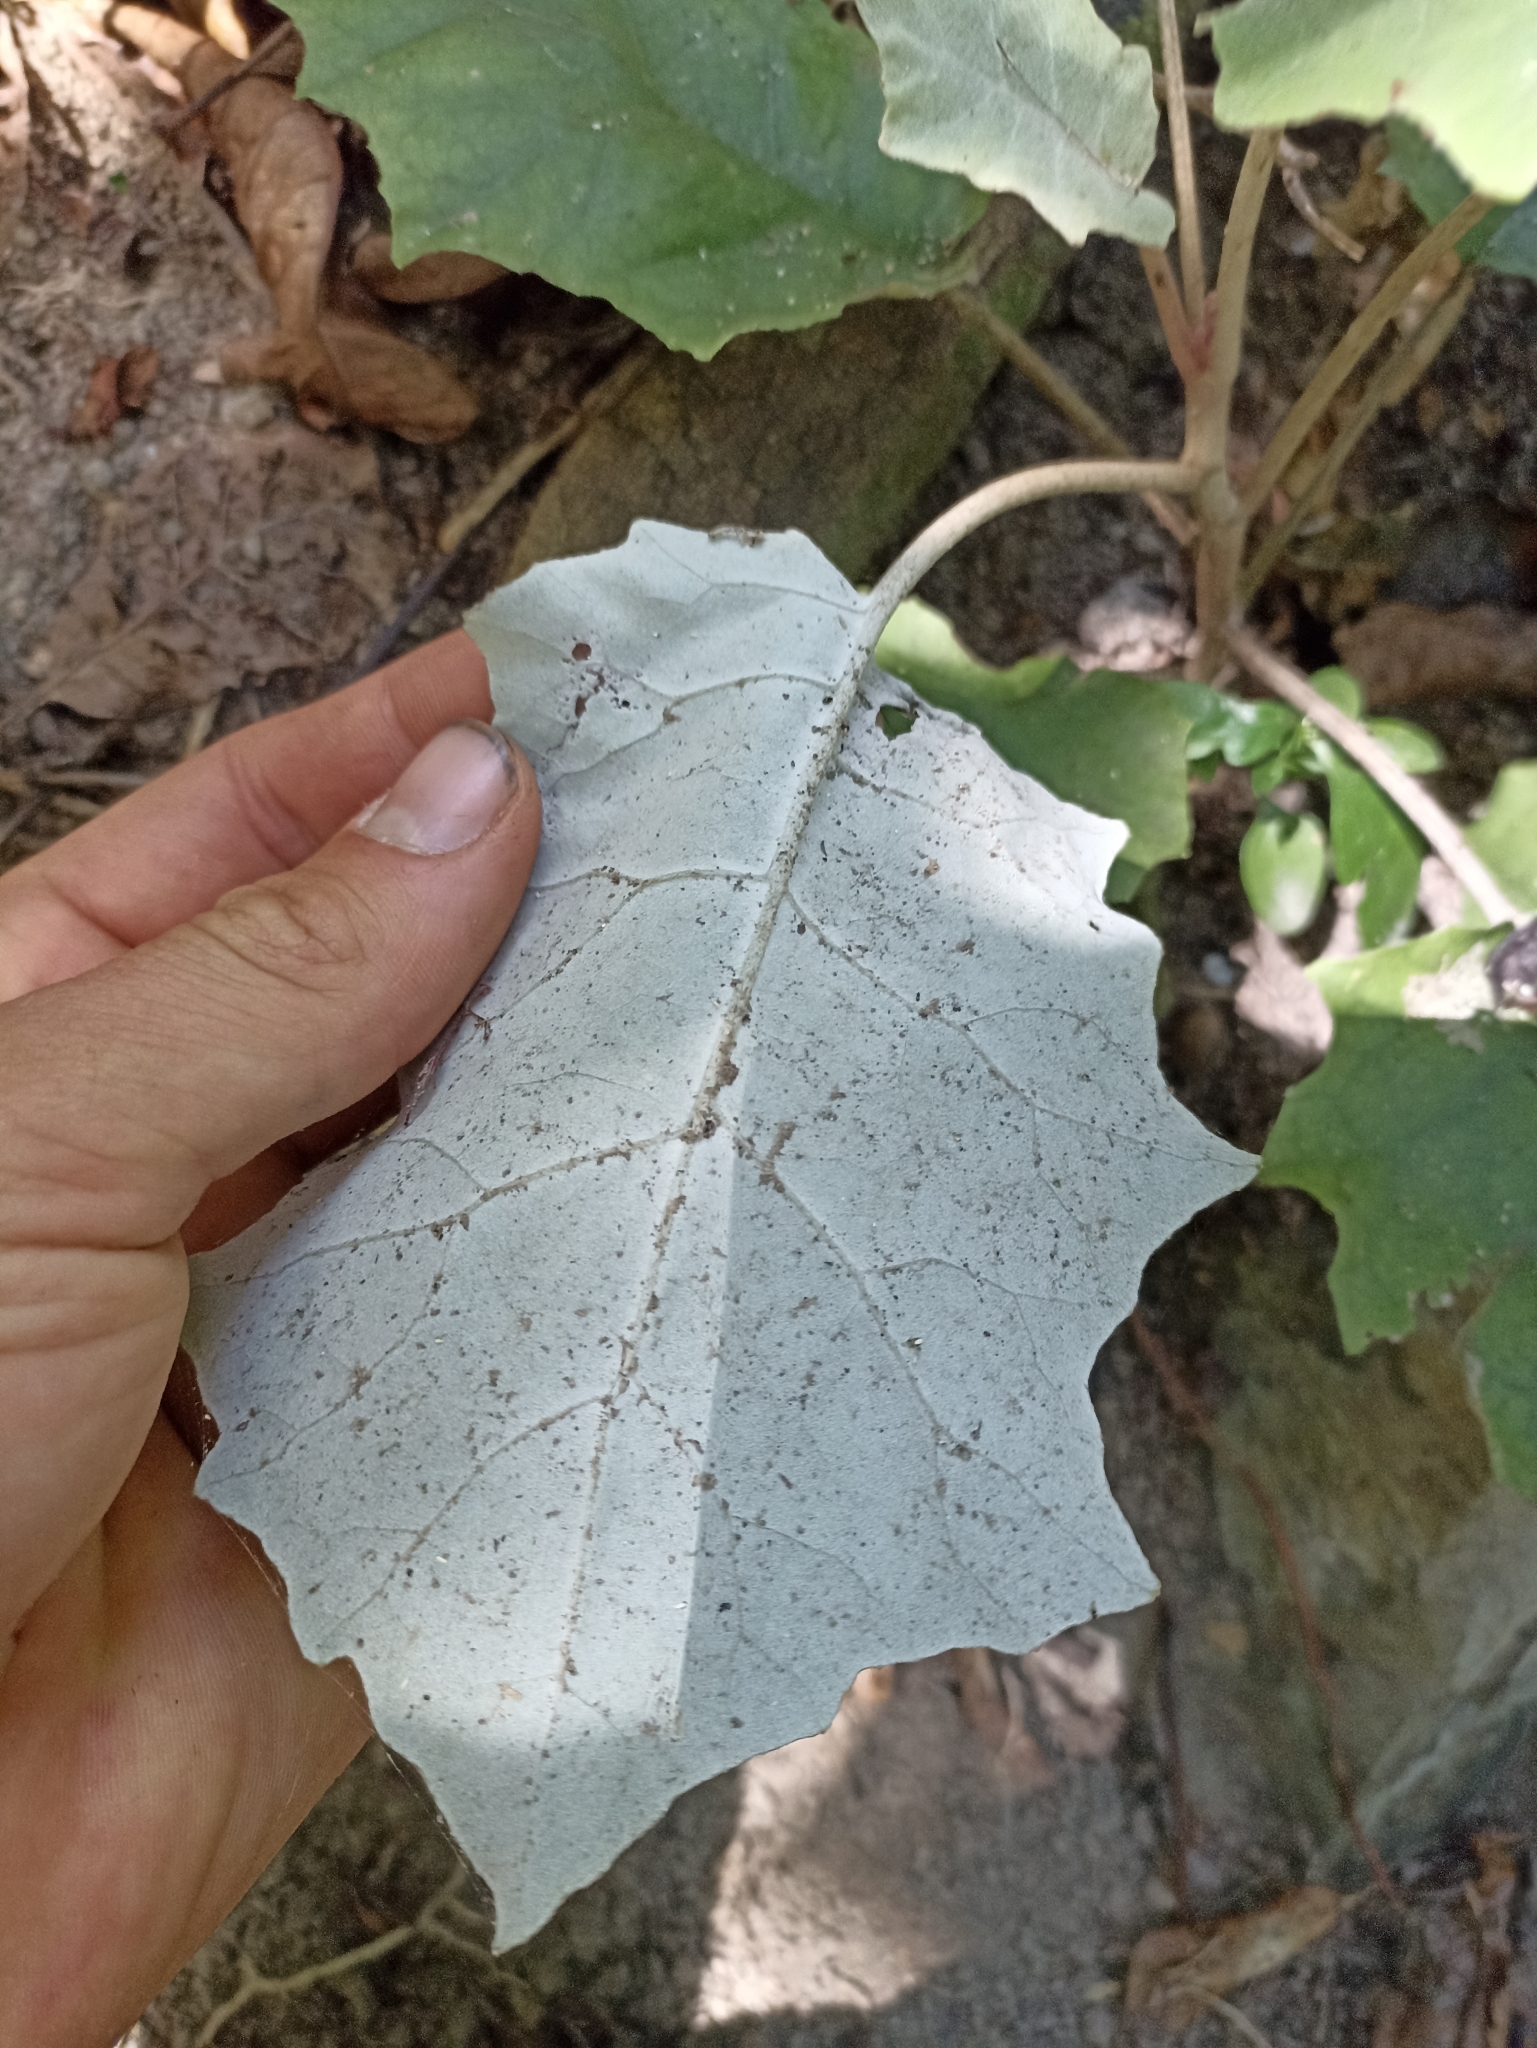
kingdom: Plantae
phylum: Tracheophyta
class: Magnoliopsida
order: Asterales
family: Asteraceae
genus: Brachyglottis
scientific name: Brachyglottis repanda
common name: Hedge ragwort
